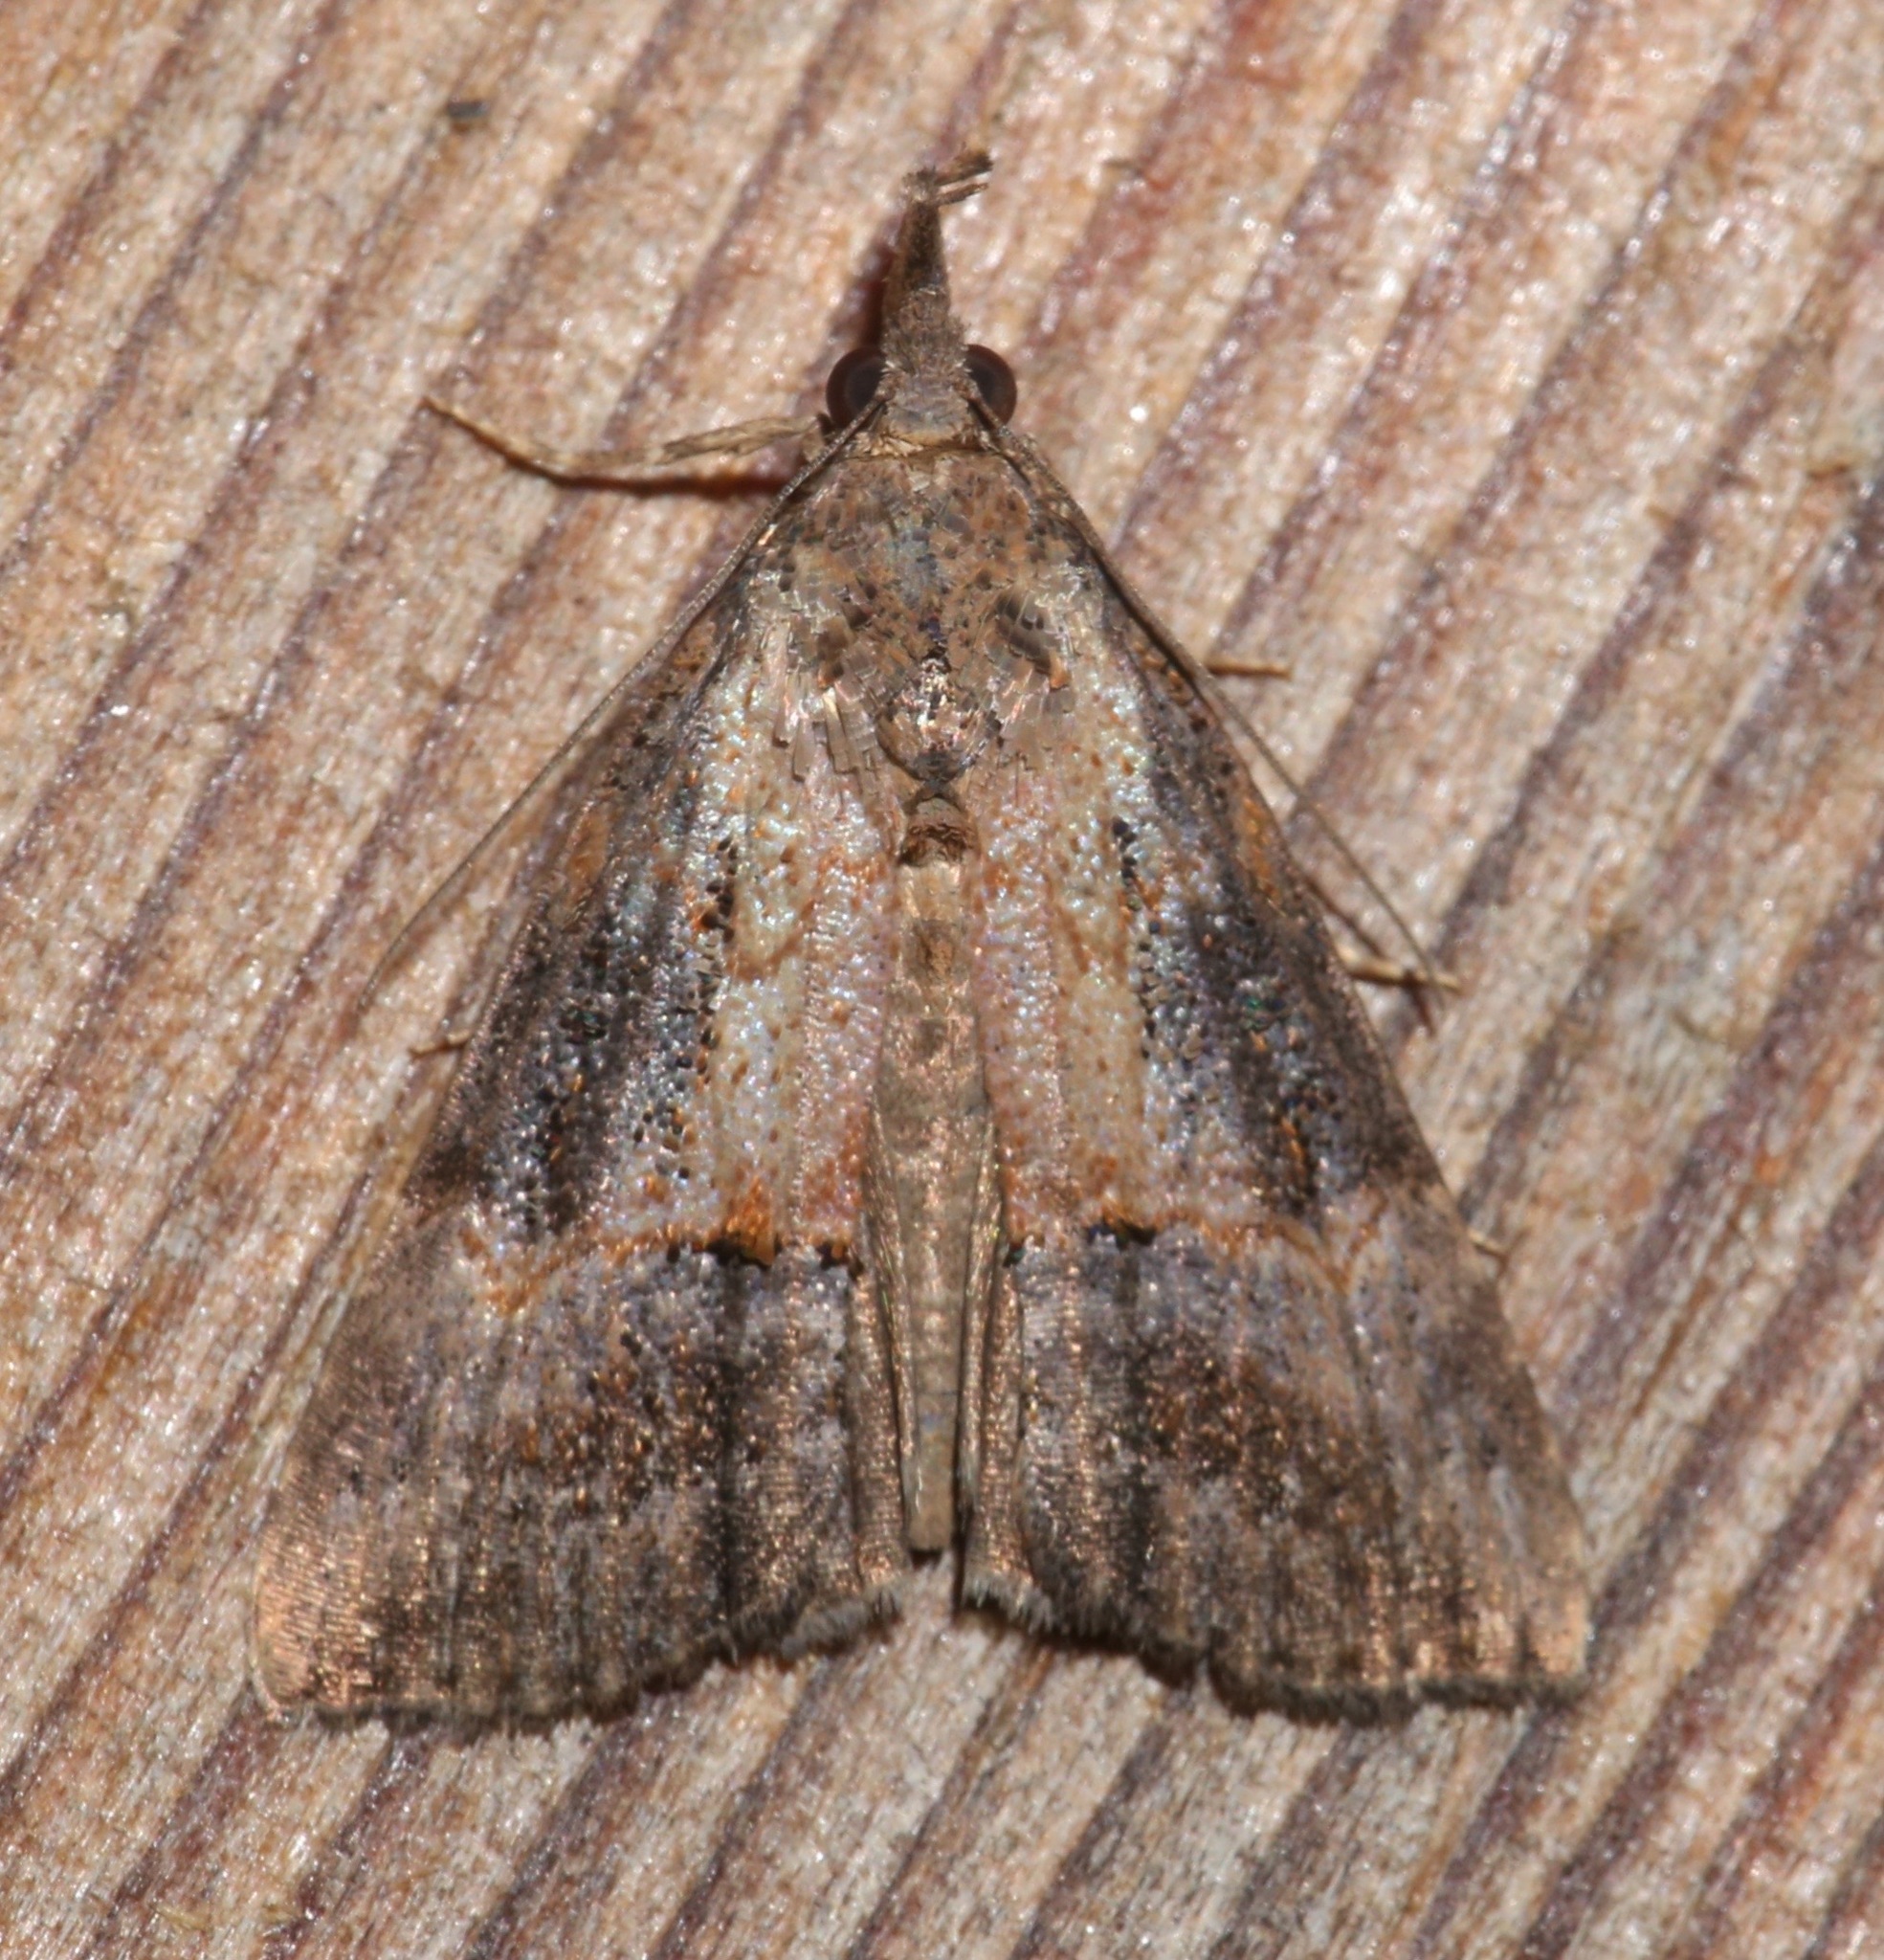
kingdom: Animalia
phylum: Arthropoda
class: Insecta
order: Lepidoptera
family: Erebidae
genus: Hypena
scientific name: Hypena scabra
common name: Green cloverworm
